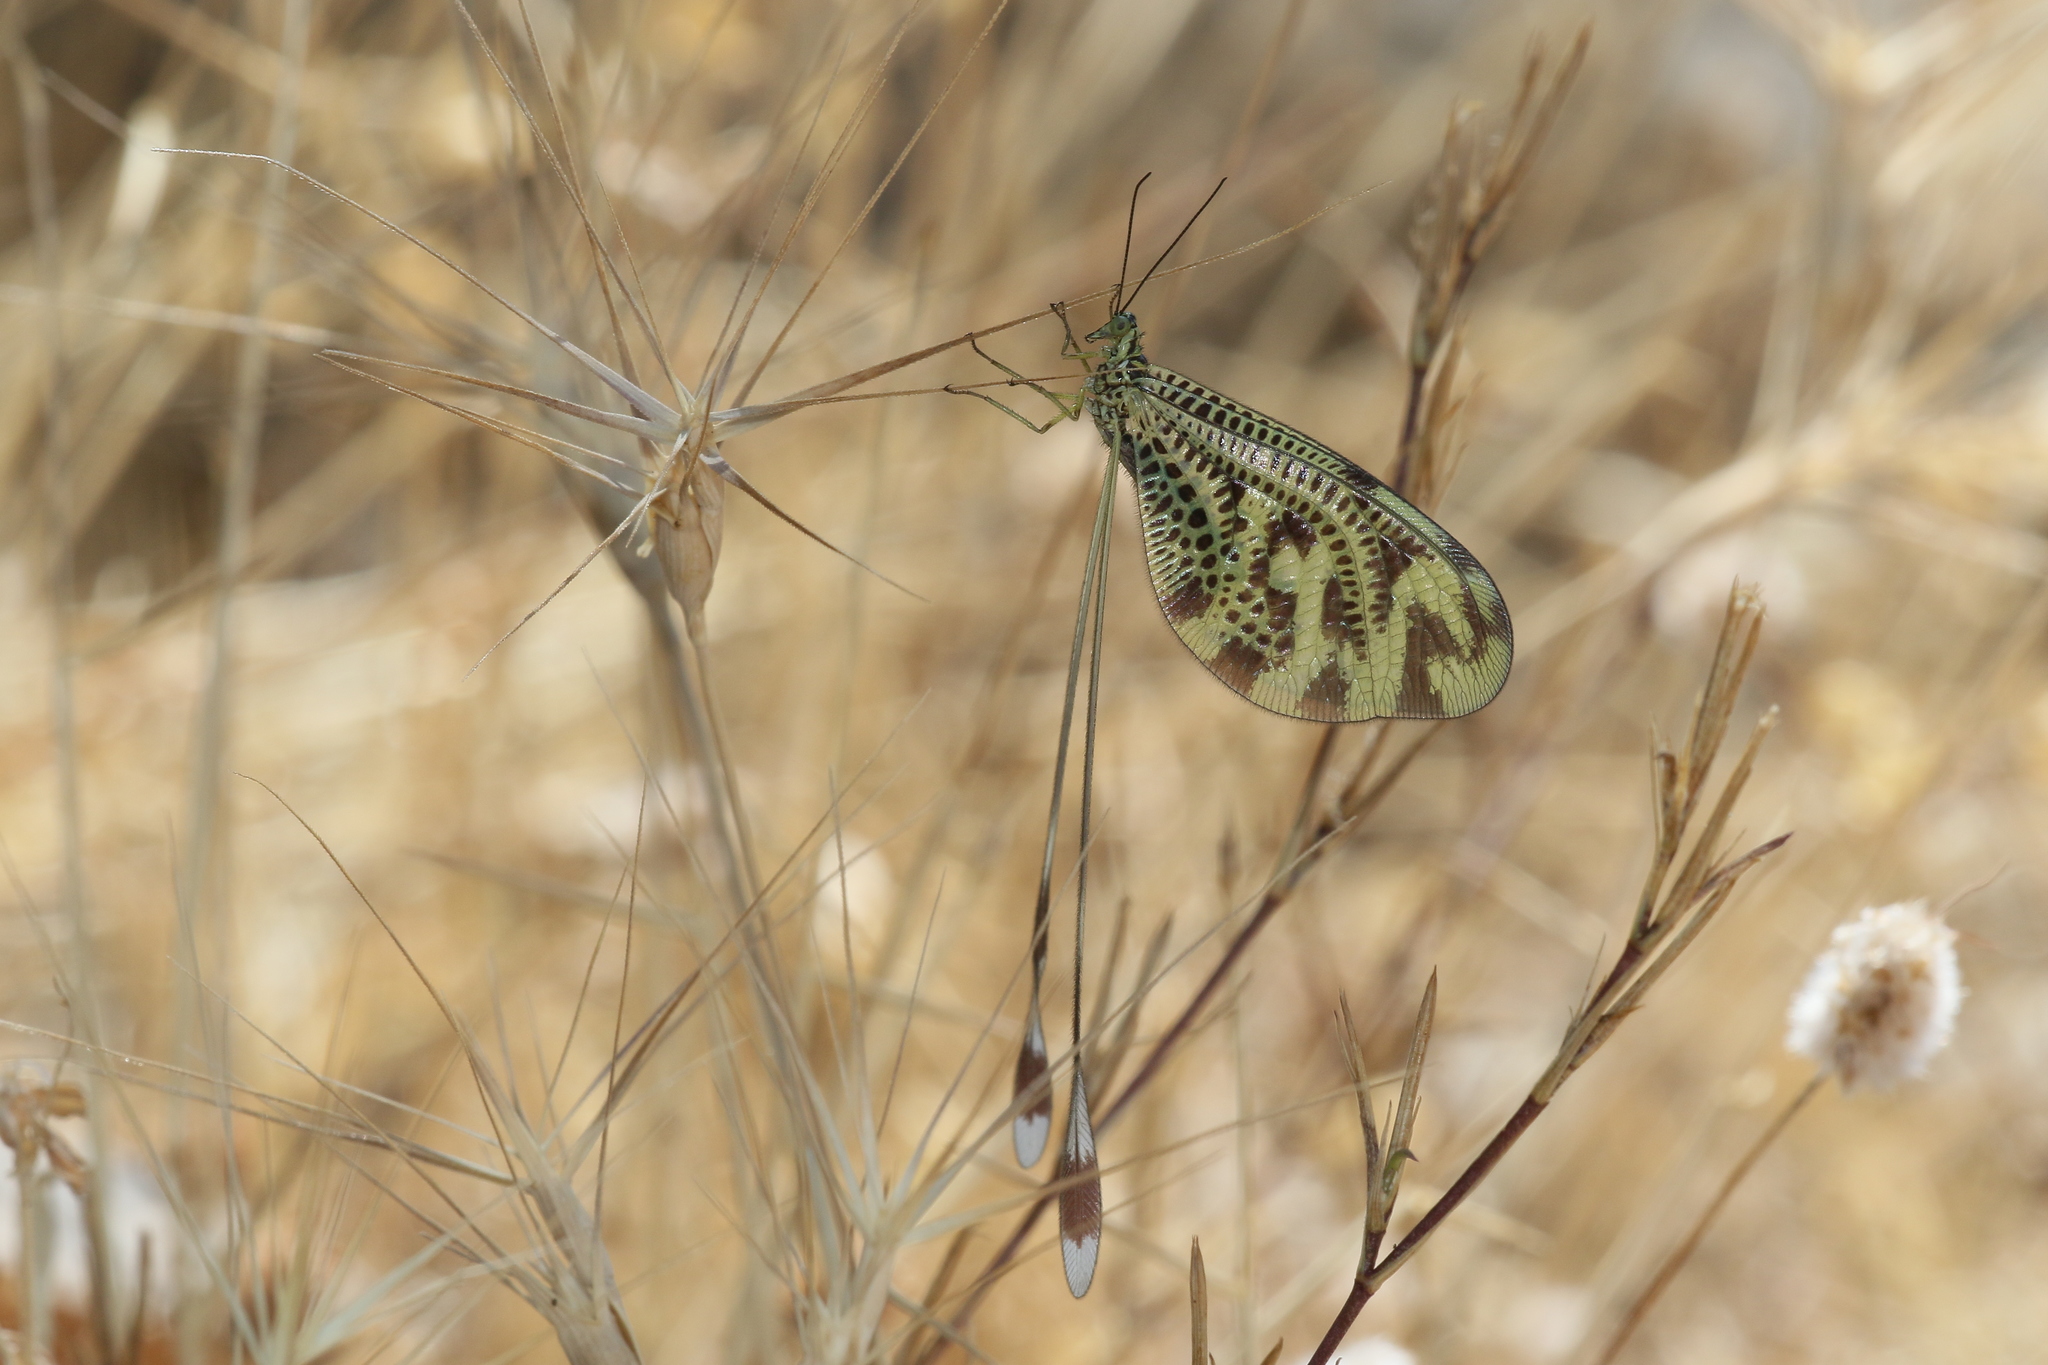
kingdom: Animalia
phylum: Arthropoda
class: Insecta
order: Neuroptera
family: Nemopteridae
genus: Nemoptera
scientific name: Nemoptera coa
